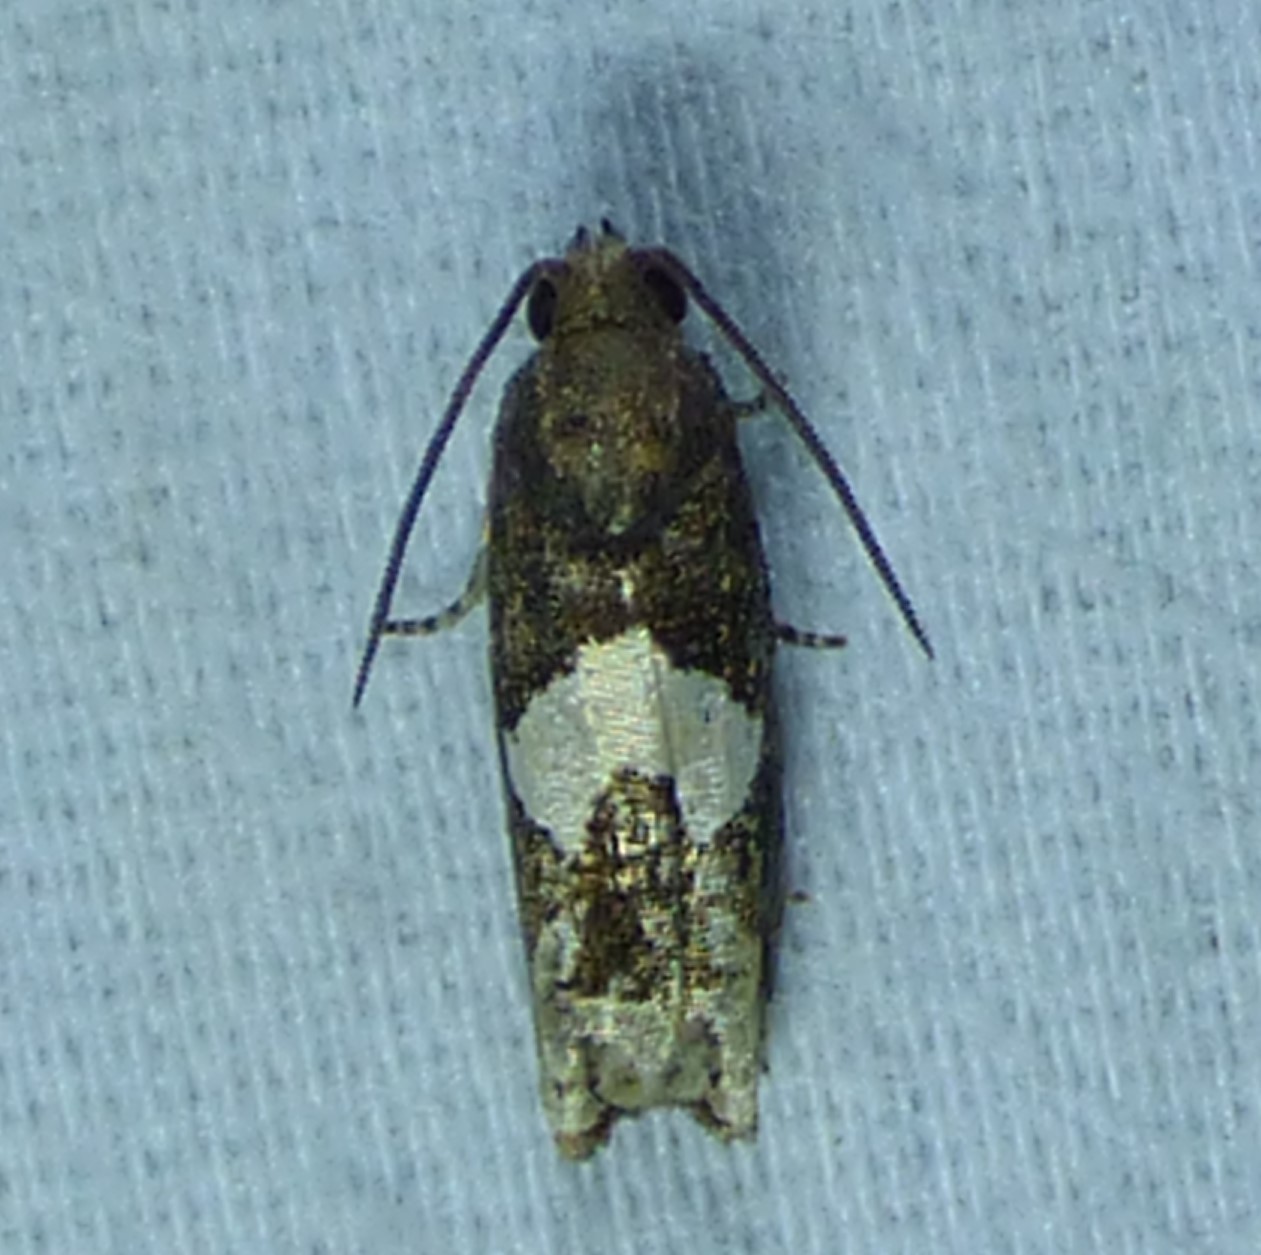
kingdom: Animalia
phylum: Arthropoda
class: Insecta
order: Lepidoptera
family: Tortricidae
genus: Epiblema
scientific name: Epiblema otiosana
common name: Bidens borer moth
